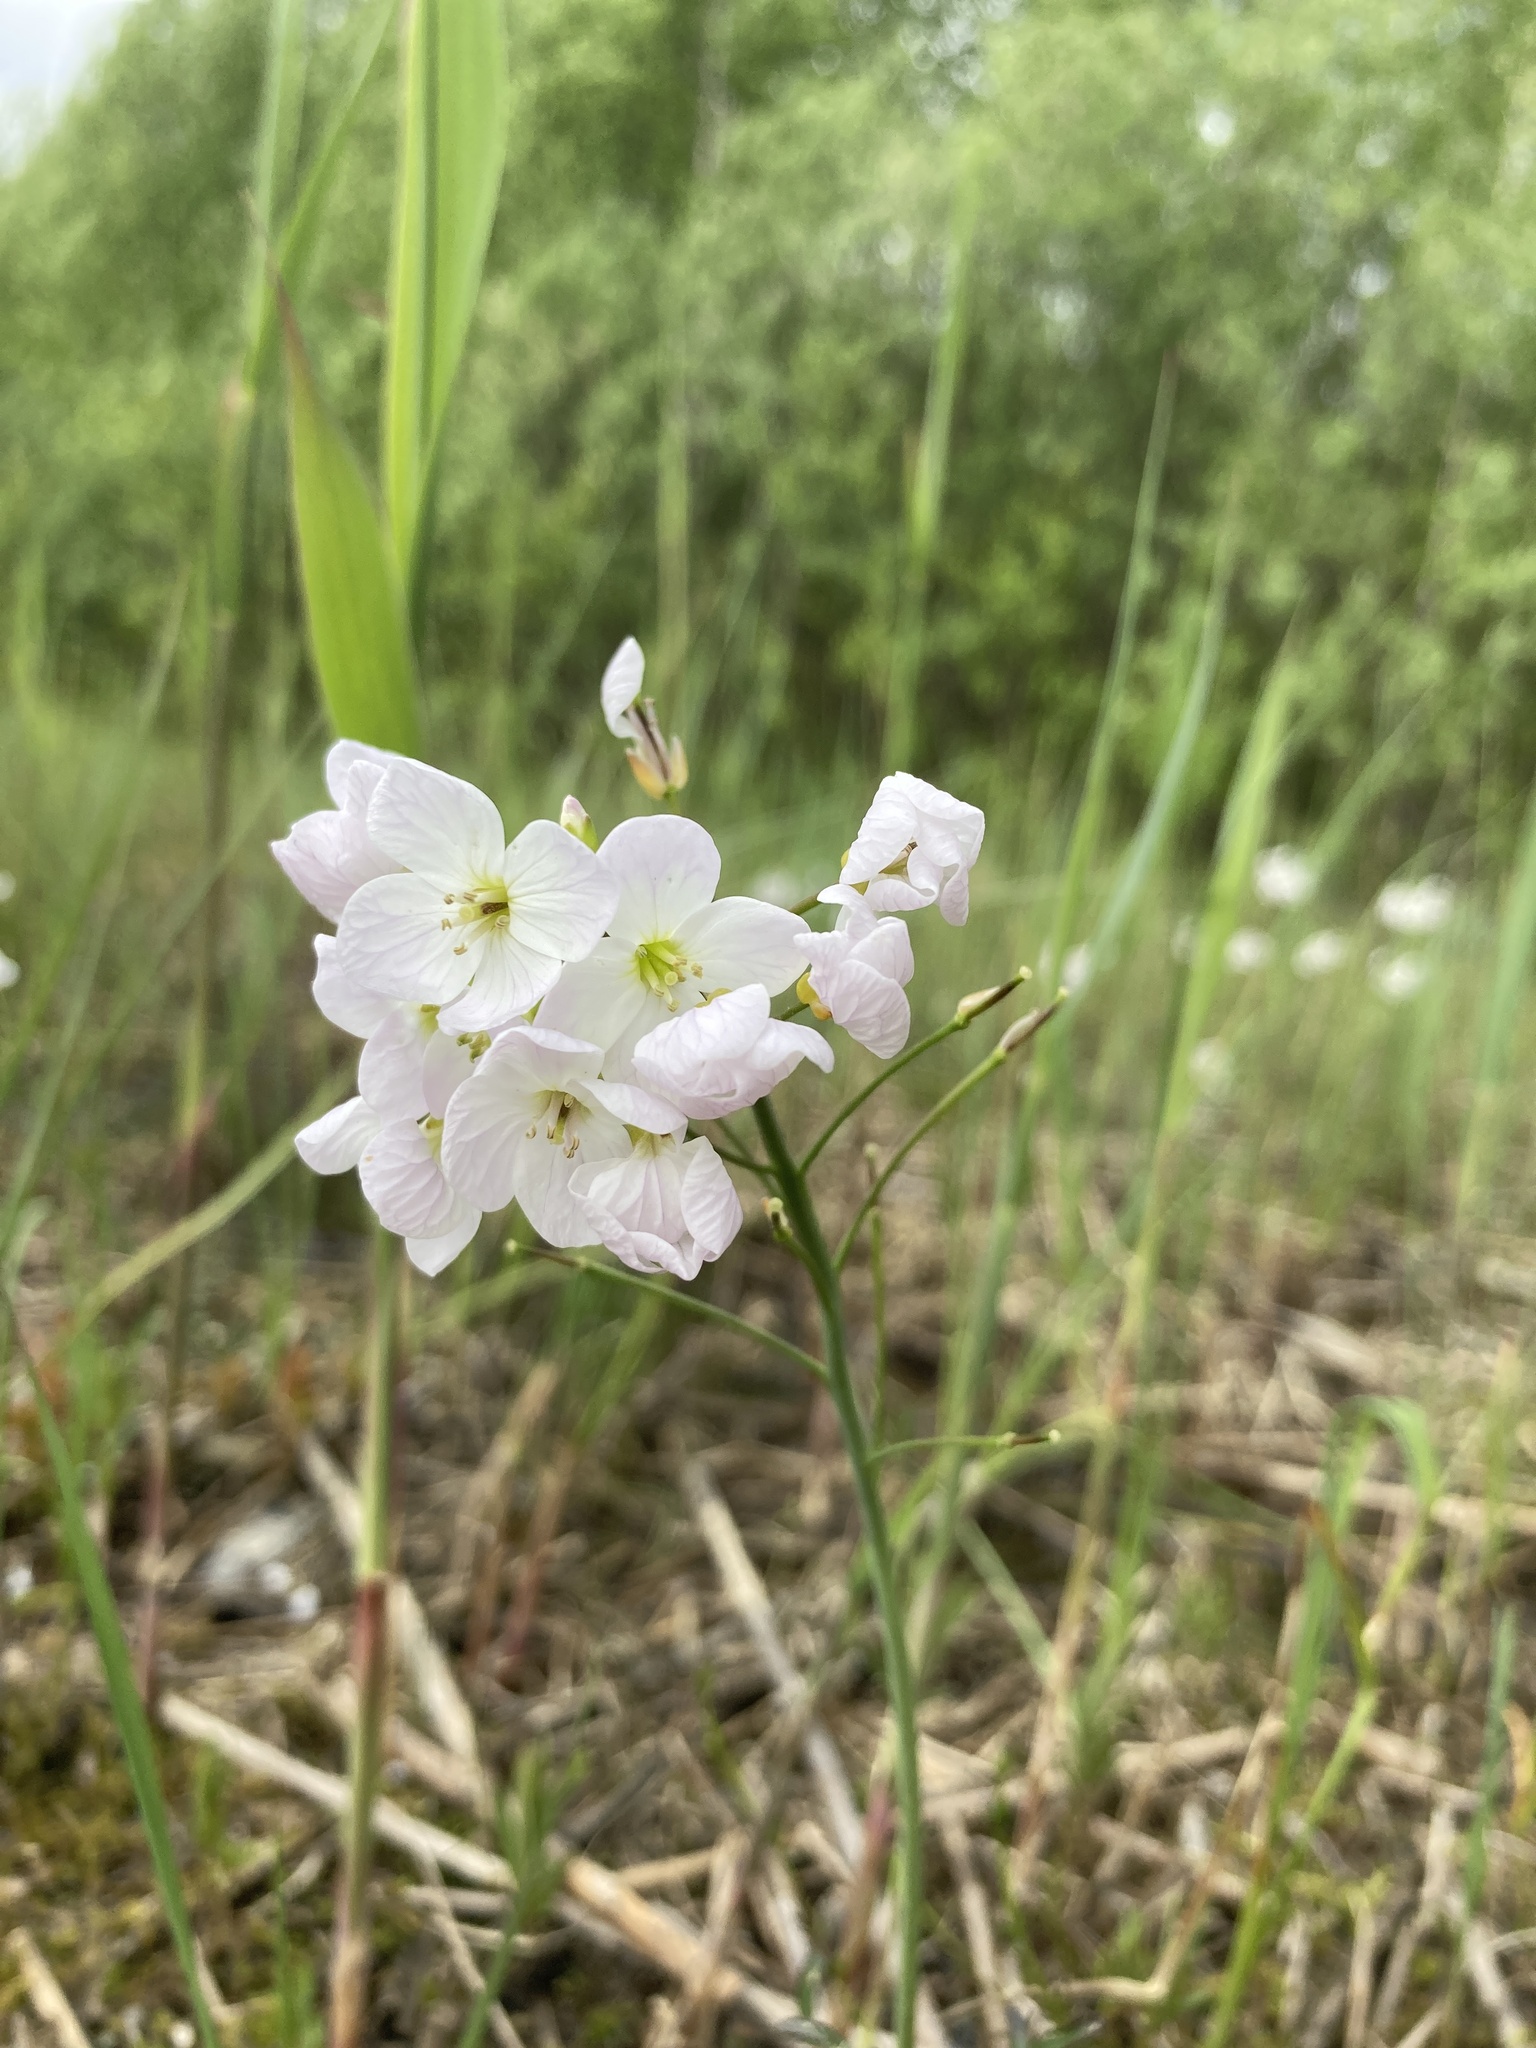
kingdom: Plantae
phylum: Tracheophyta
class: Magnoliopsida
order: Brassicales
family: Brassicaceae
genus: Cardamine
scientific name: Cardamine dentata
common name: Toothed bittercress
